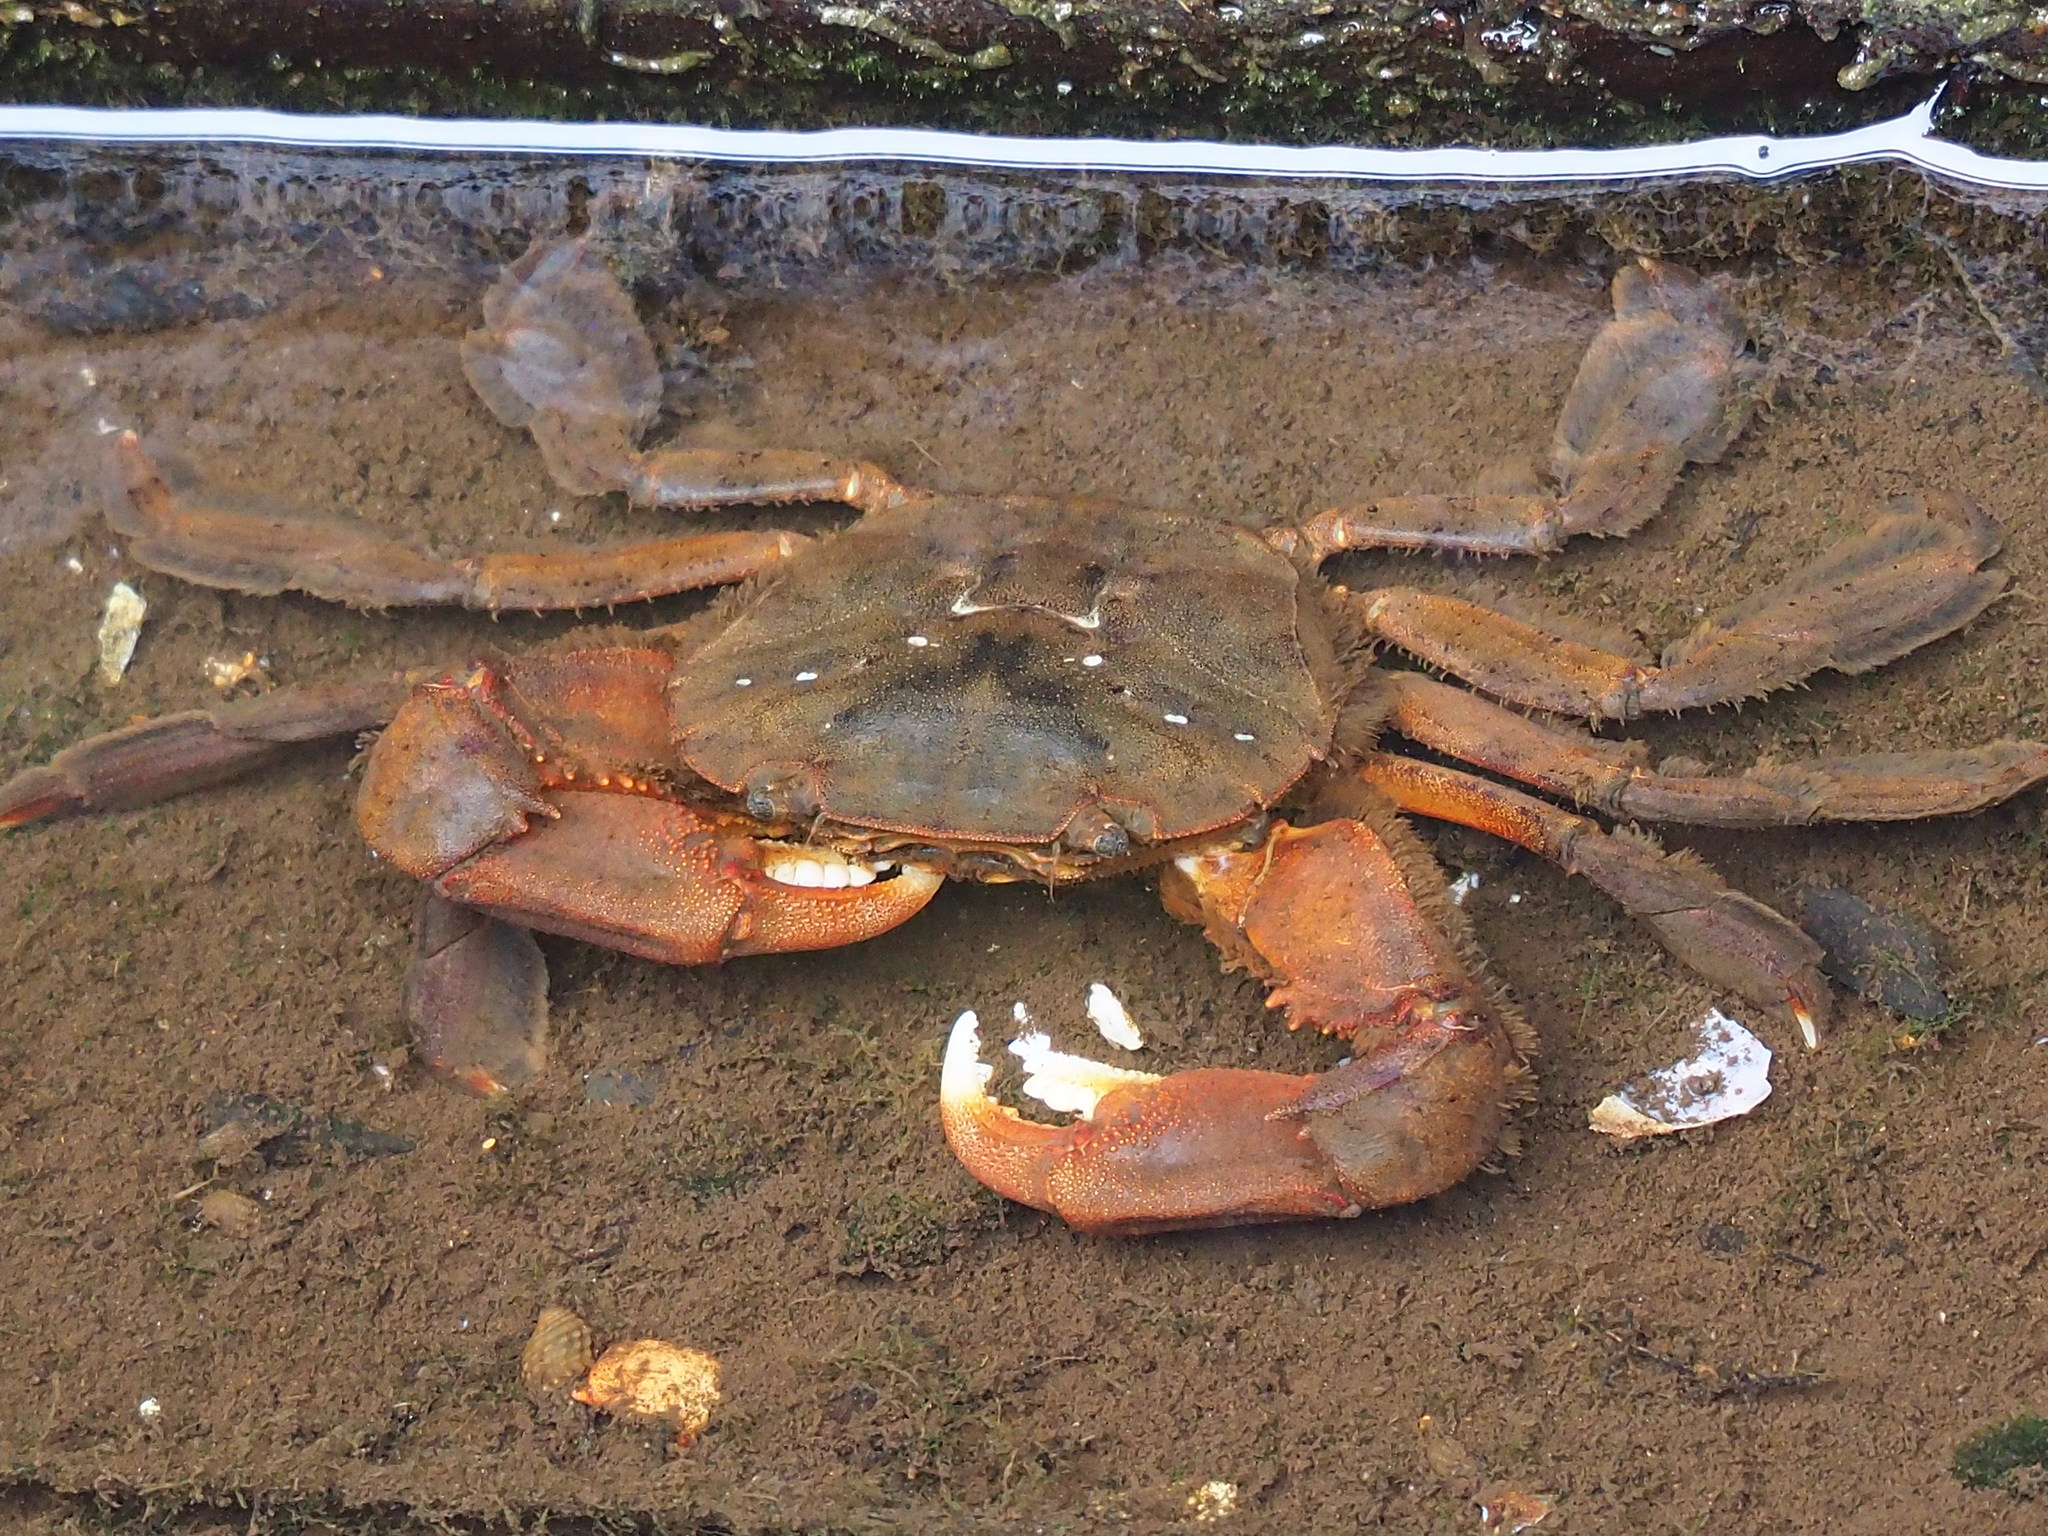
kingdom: Animalia
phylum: Arthropoda
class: Malacostraca
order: Decapoda
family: Varunidae
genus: Varuna
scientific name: Varuna litterata
